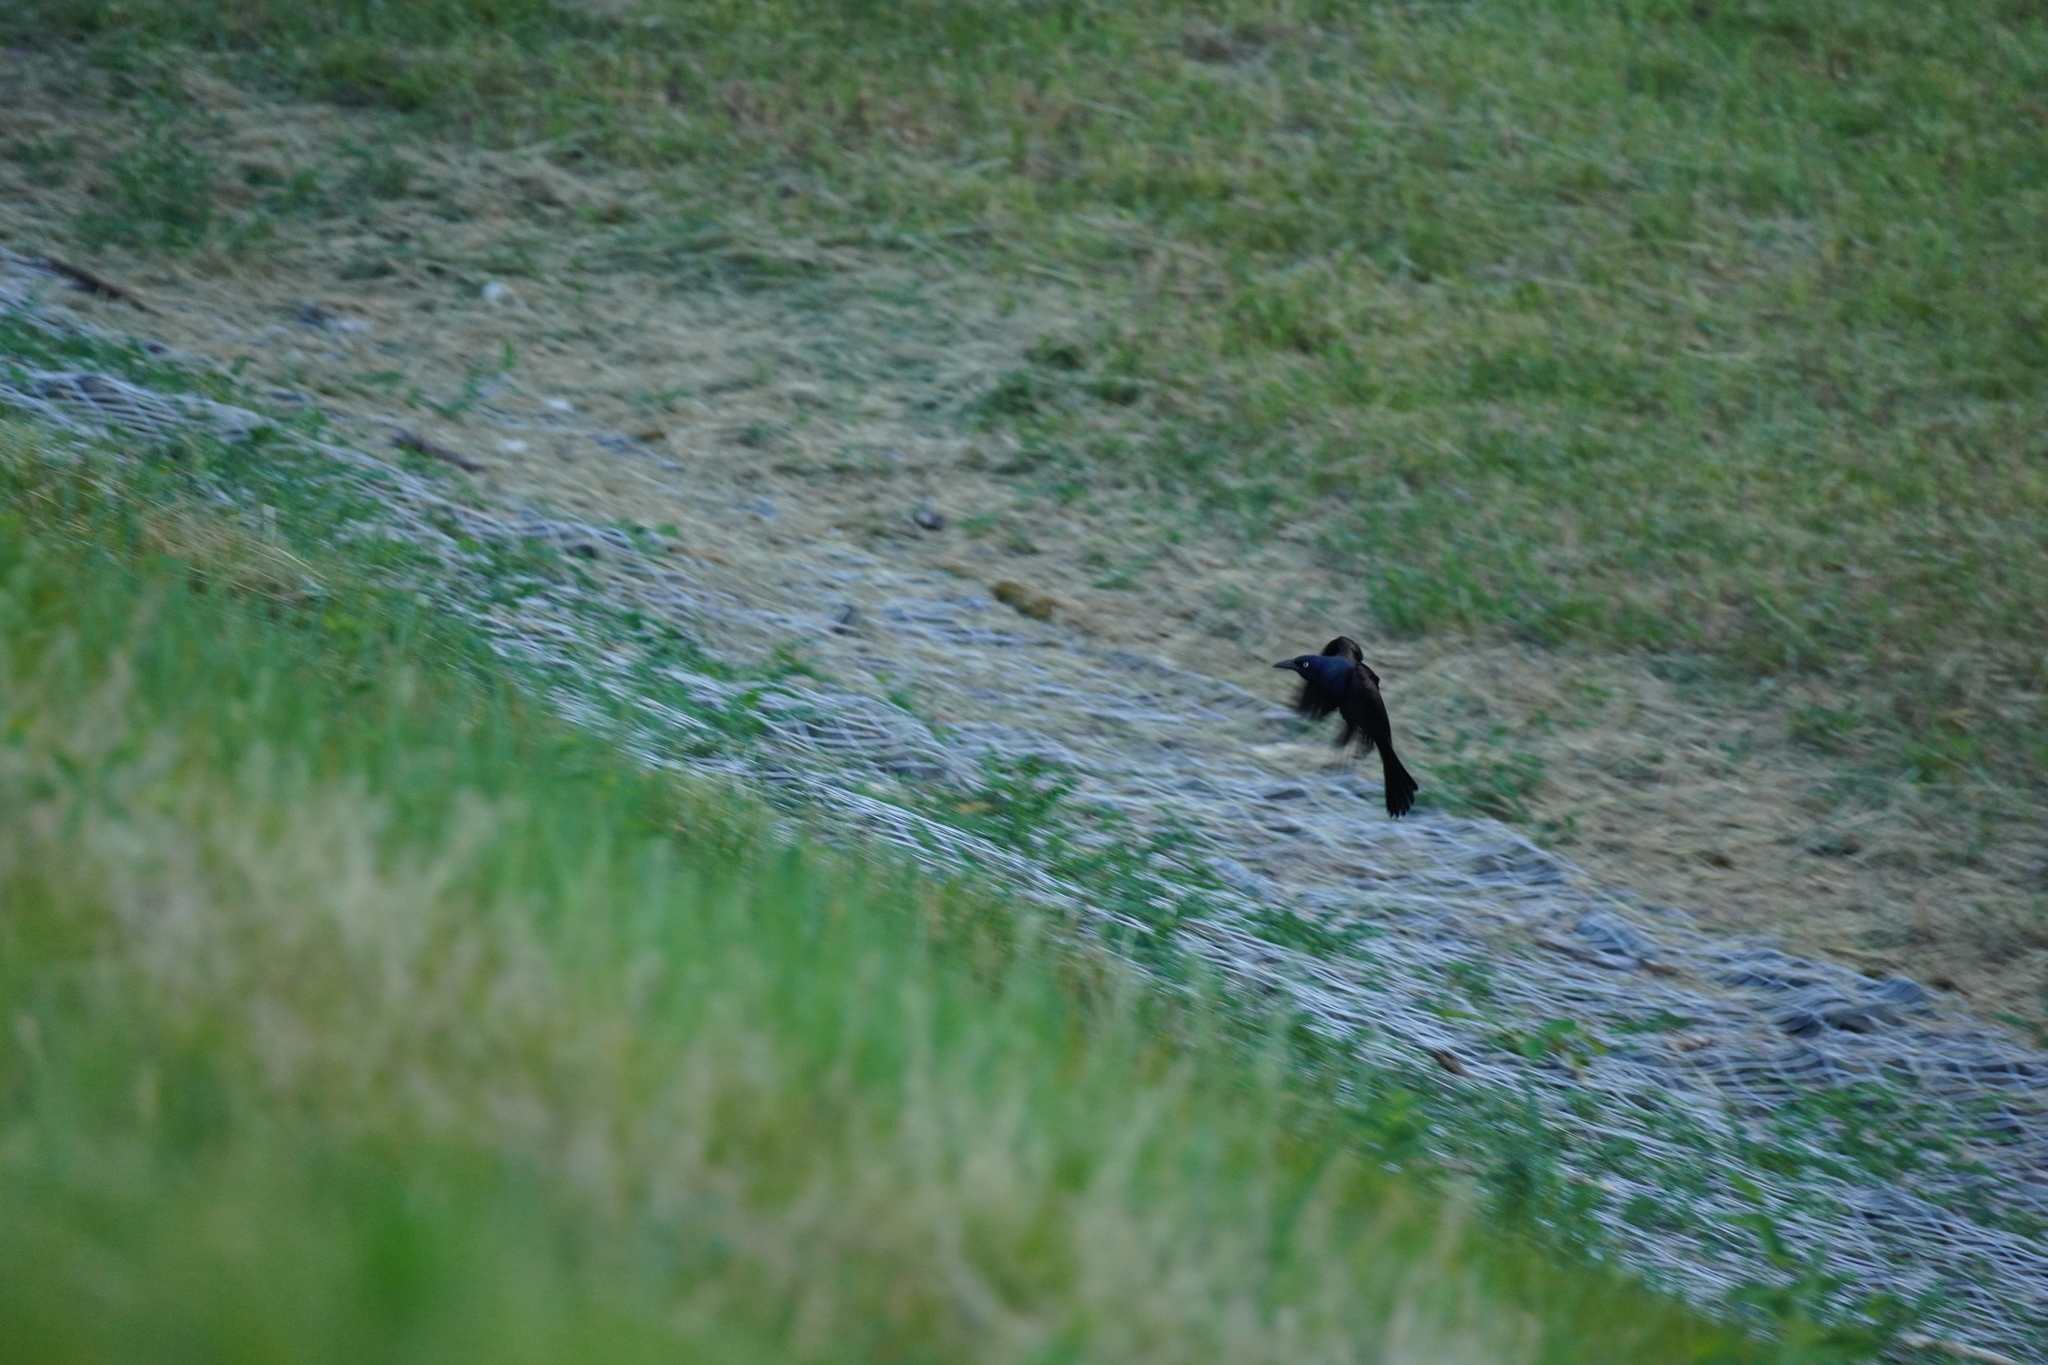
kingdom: Animalia
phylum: Chordata
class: Aves
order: Passeriformes
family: Icteridae
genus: Quiscalus
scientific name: Quiscalus quiscula
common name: Common grackle
